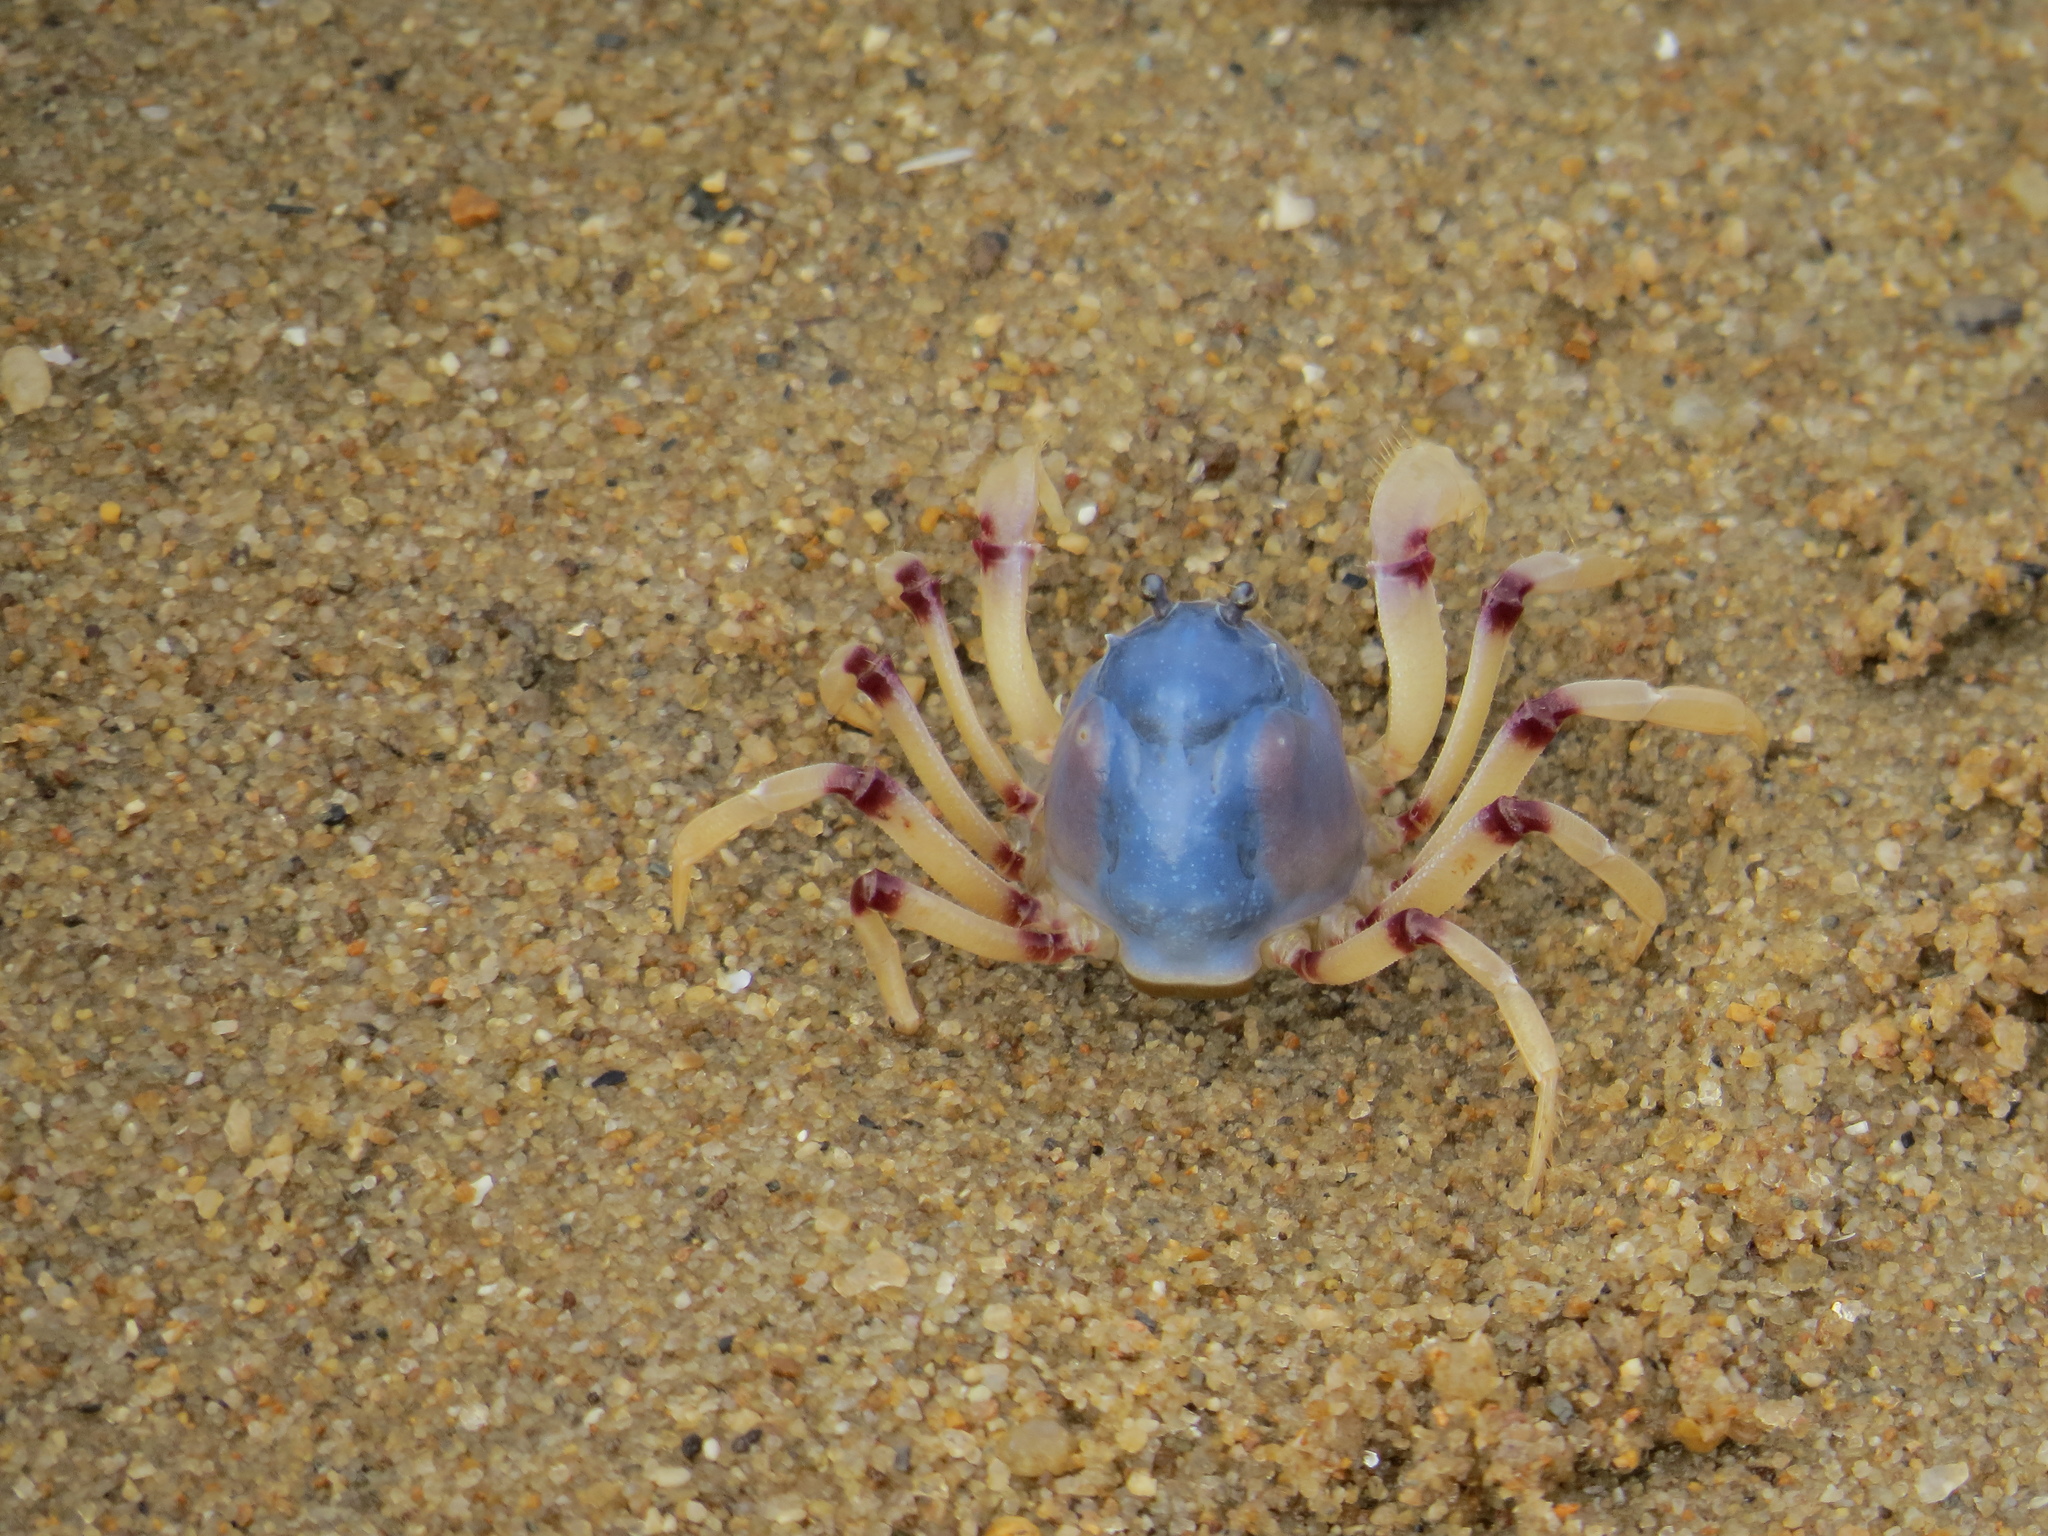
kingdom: Animalia
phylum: Arthropoda
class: Malacostraca
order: Decapoda
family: Mictyridae
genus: Mictyris
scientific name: Mictyris longicarpus
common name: Light-blue soldier crab
